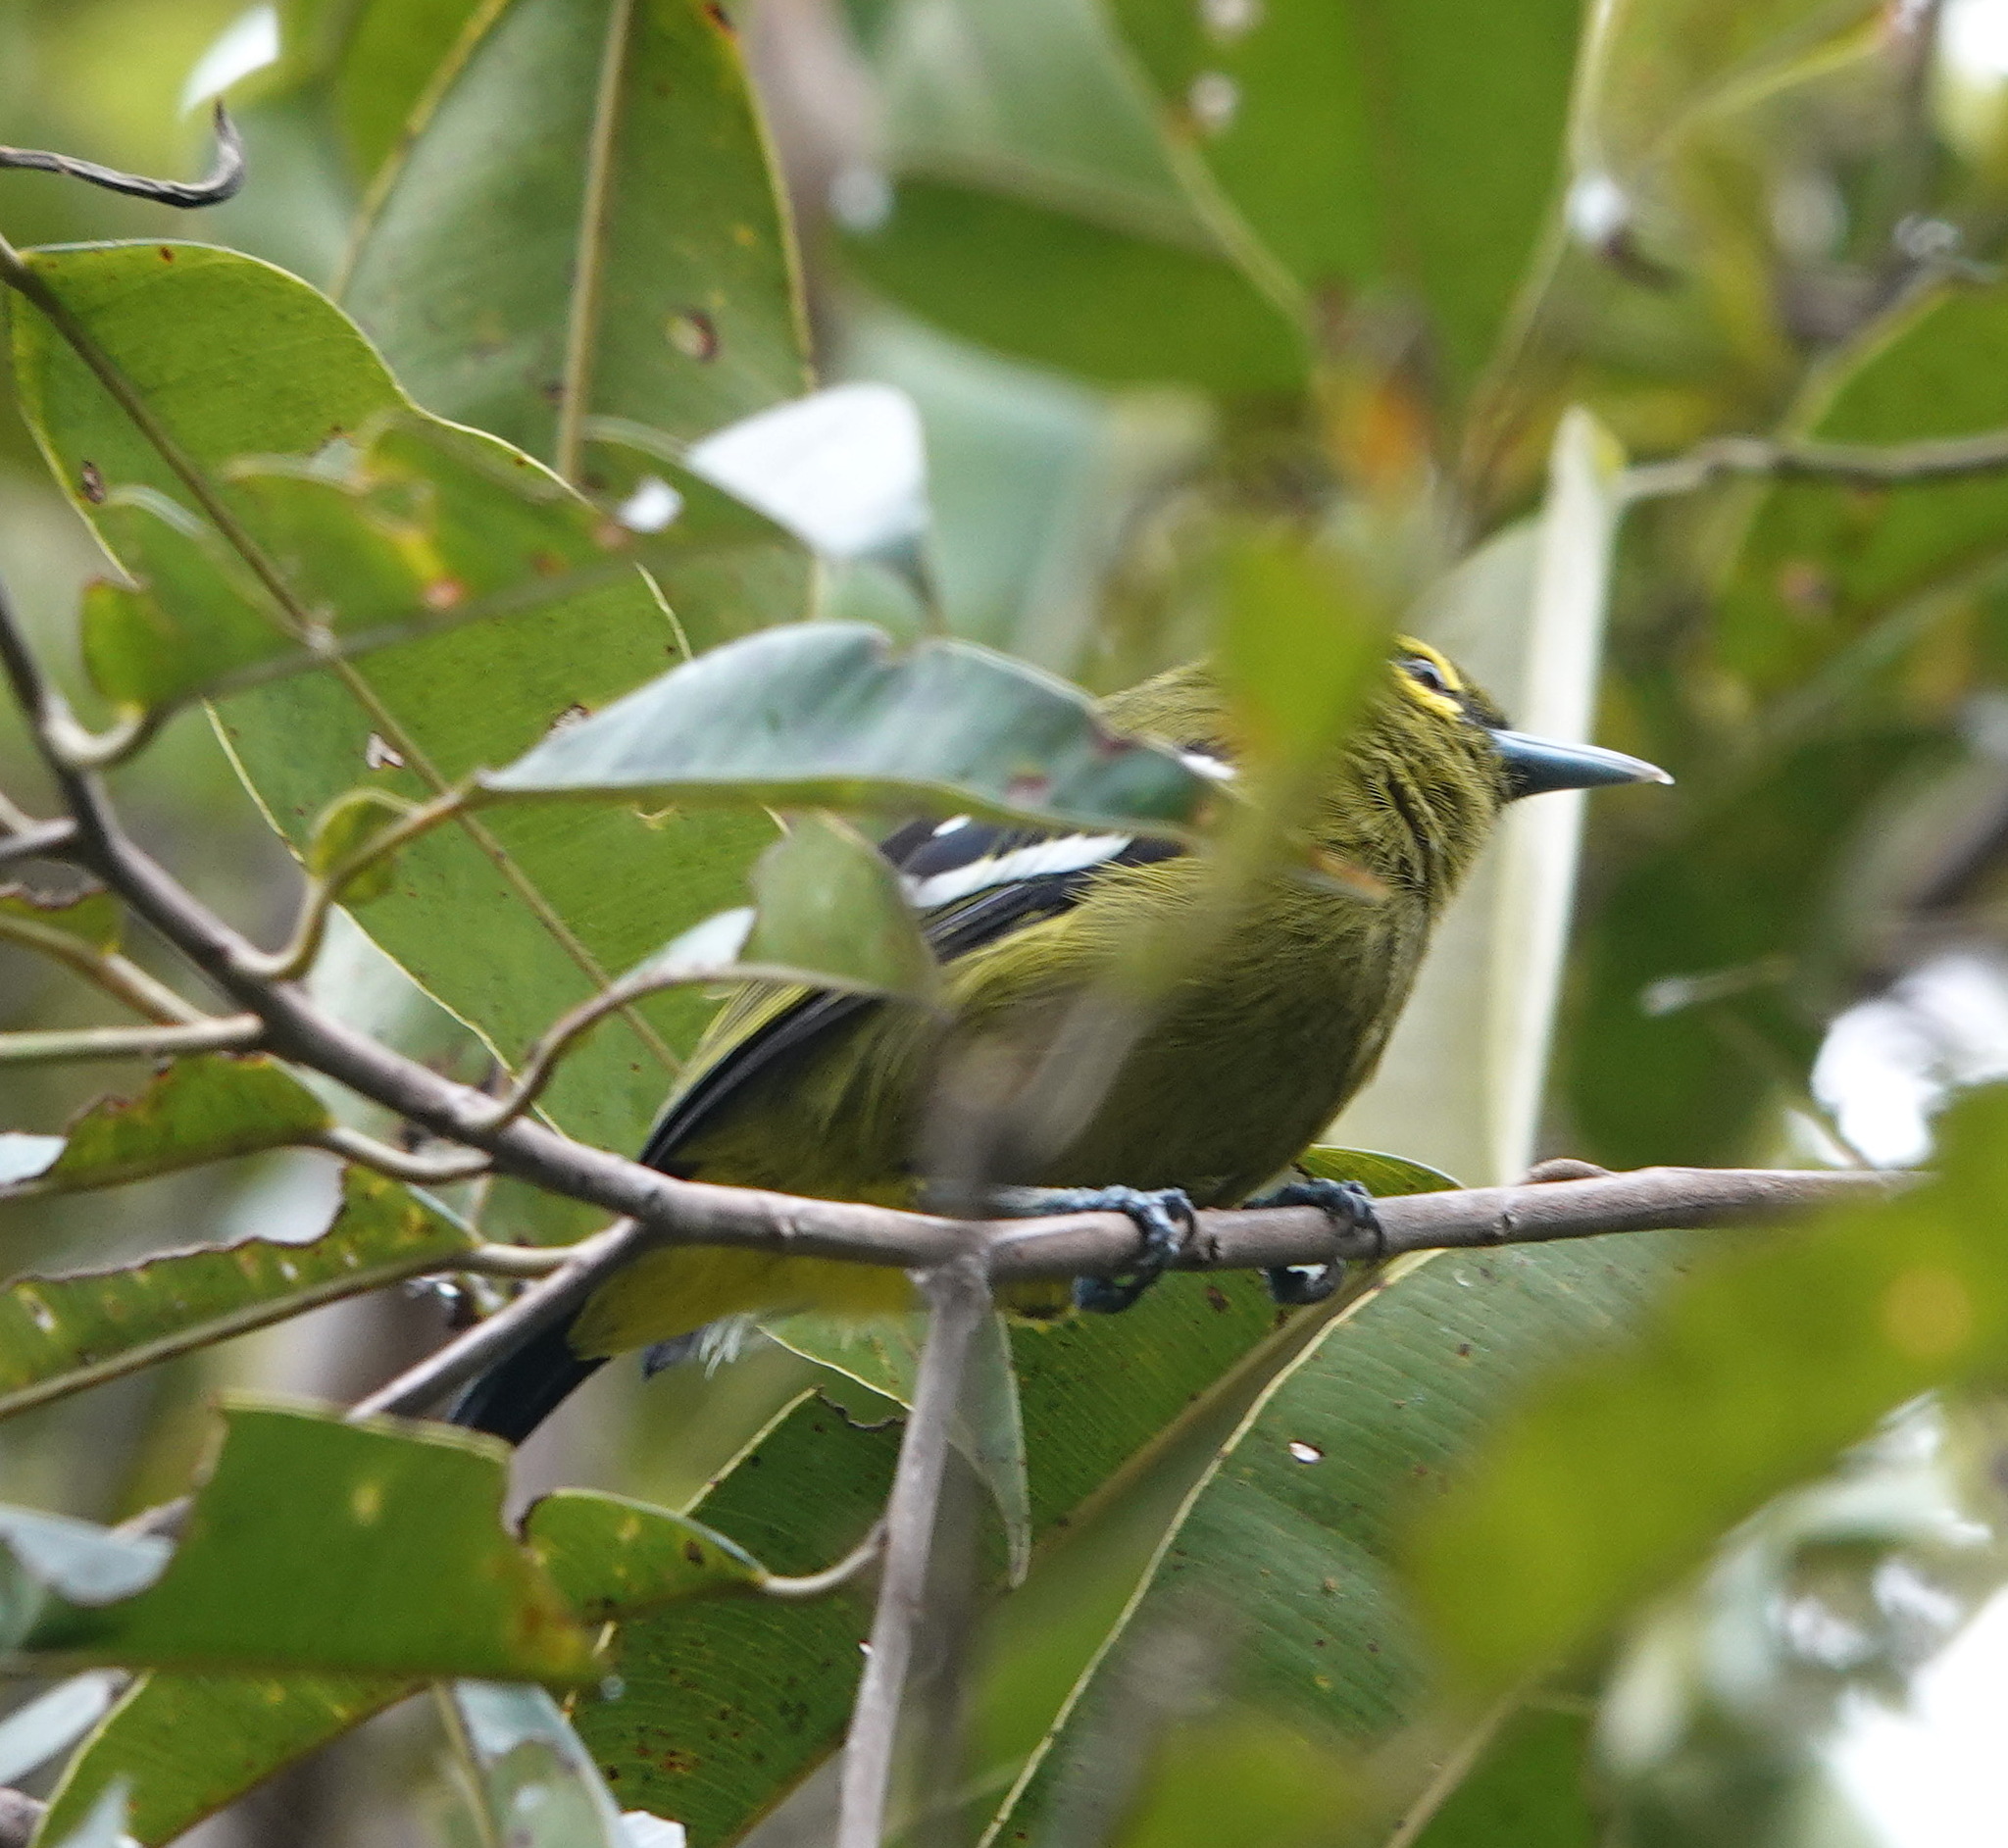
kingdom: Animalia
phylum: Chordata
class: Aves
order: Passeriformes
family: Aegithinidae
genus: Aegithina
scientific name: Aegithina viridissima
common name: Green iora
